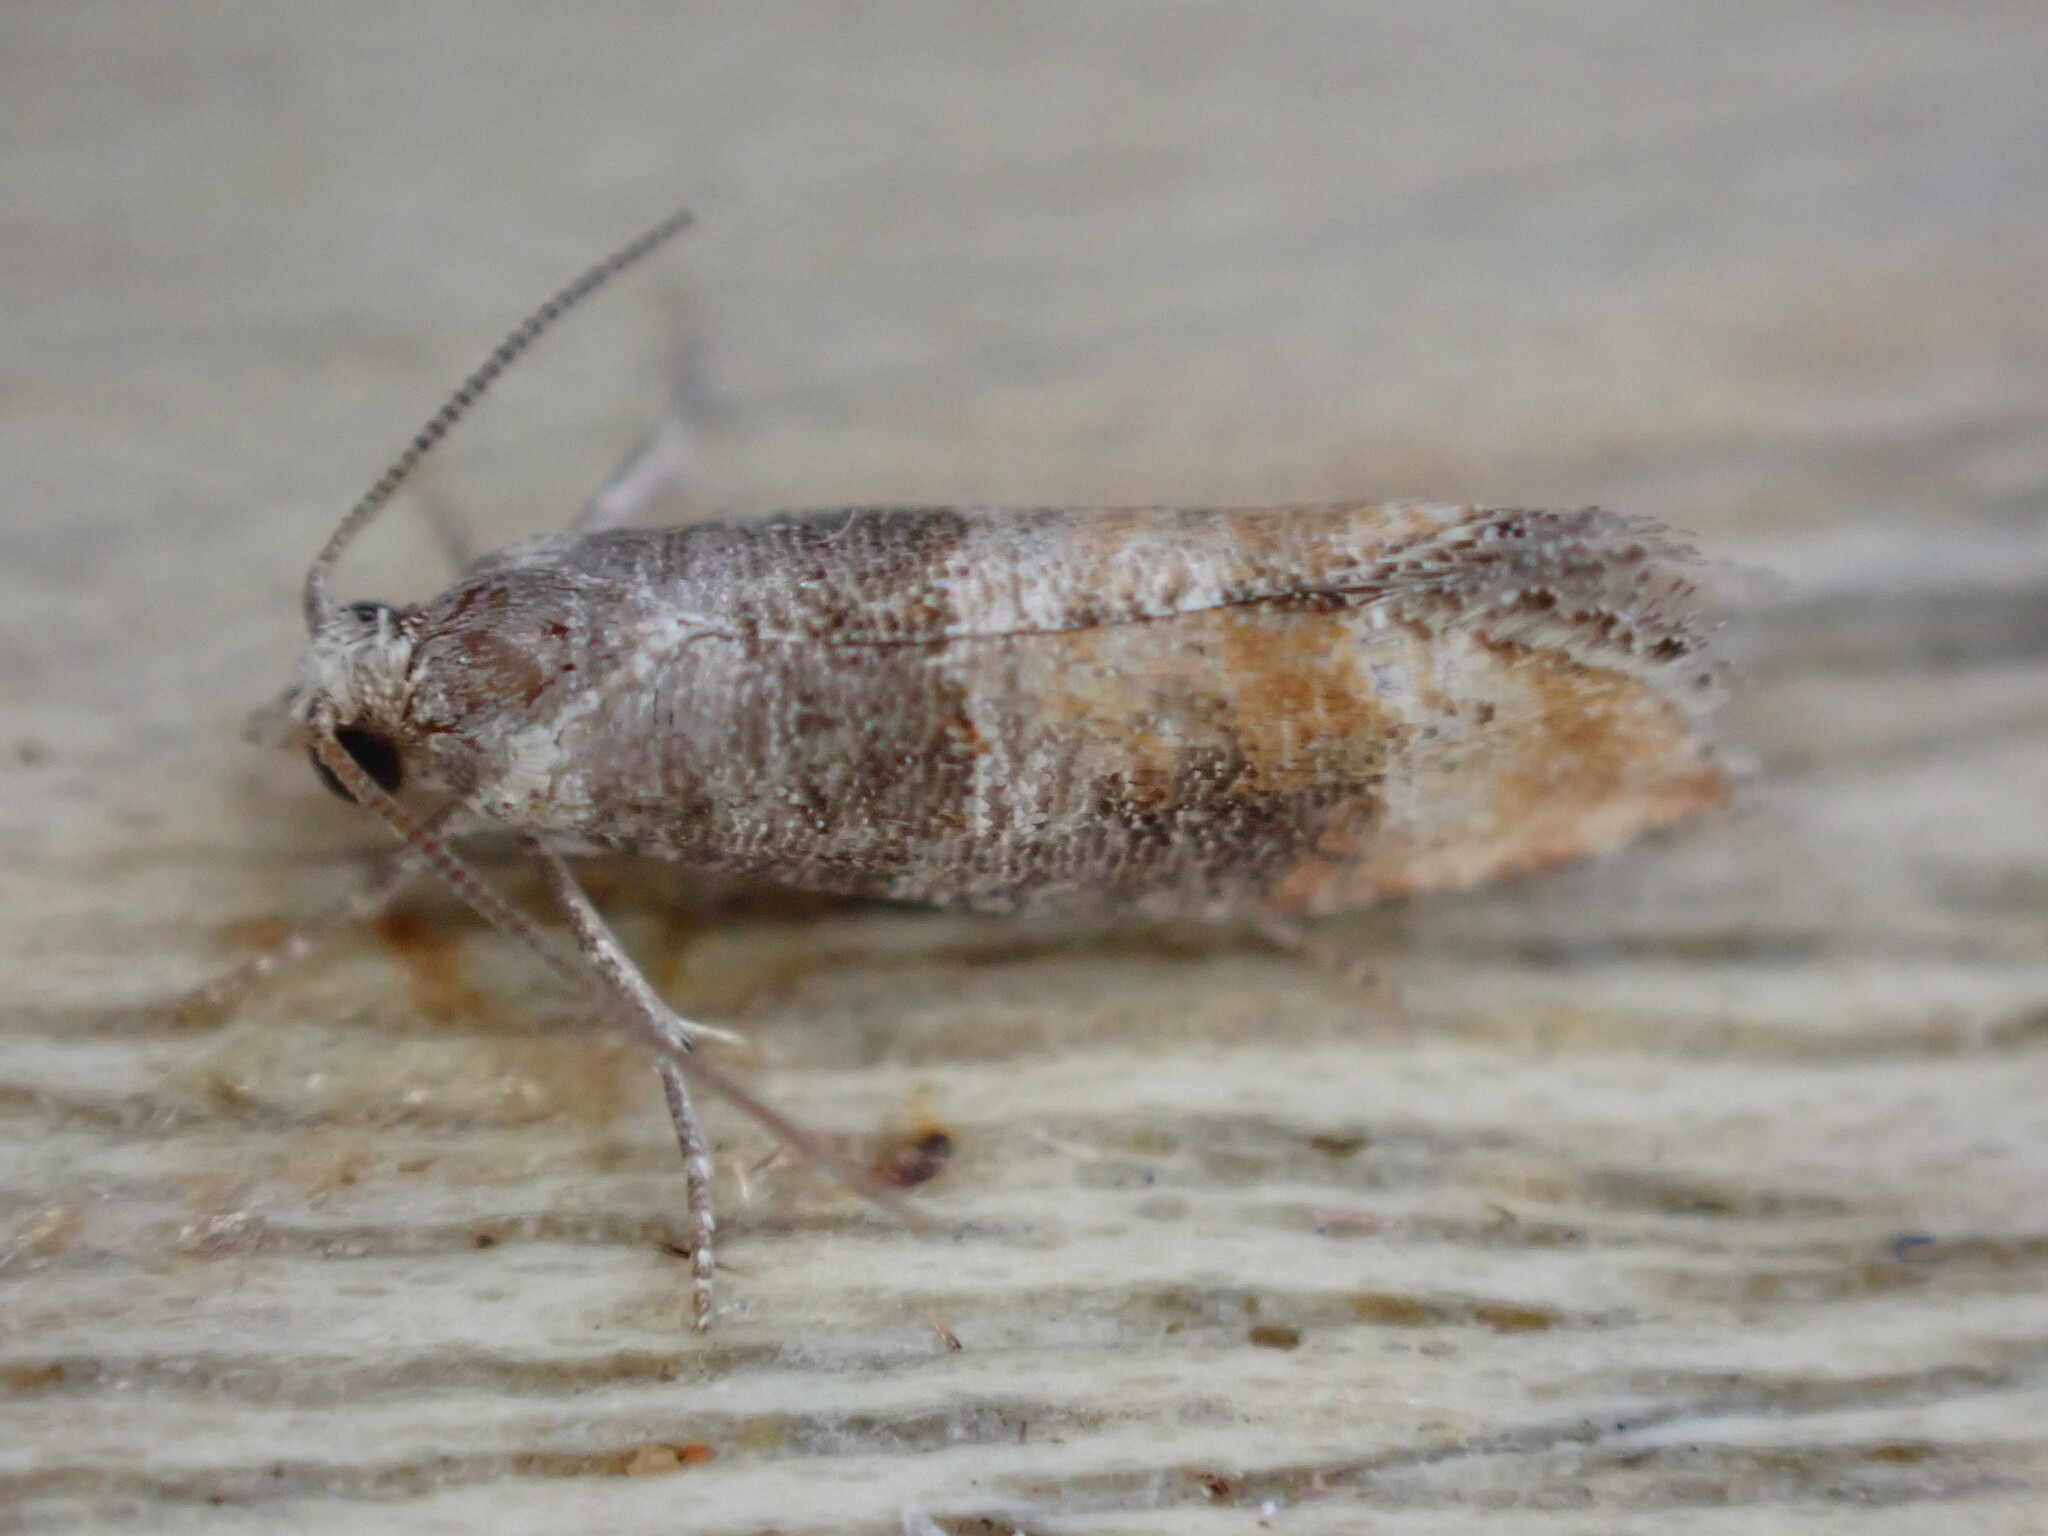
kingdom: Animalia
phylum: Arthropoda
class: Insecta
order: Lepidoptera
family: Tortricidae
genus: Clavigesta
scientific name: Clavigesta purdeyi
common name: Pine leaf-mining moth
